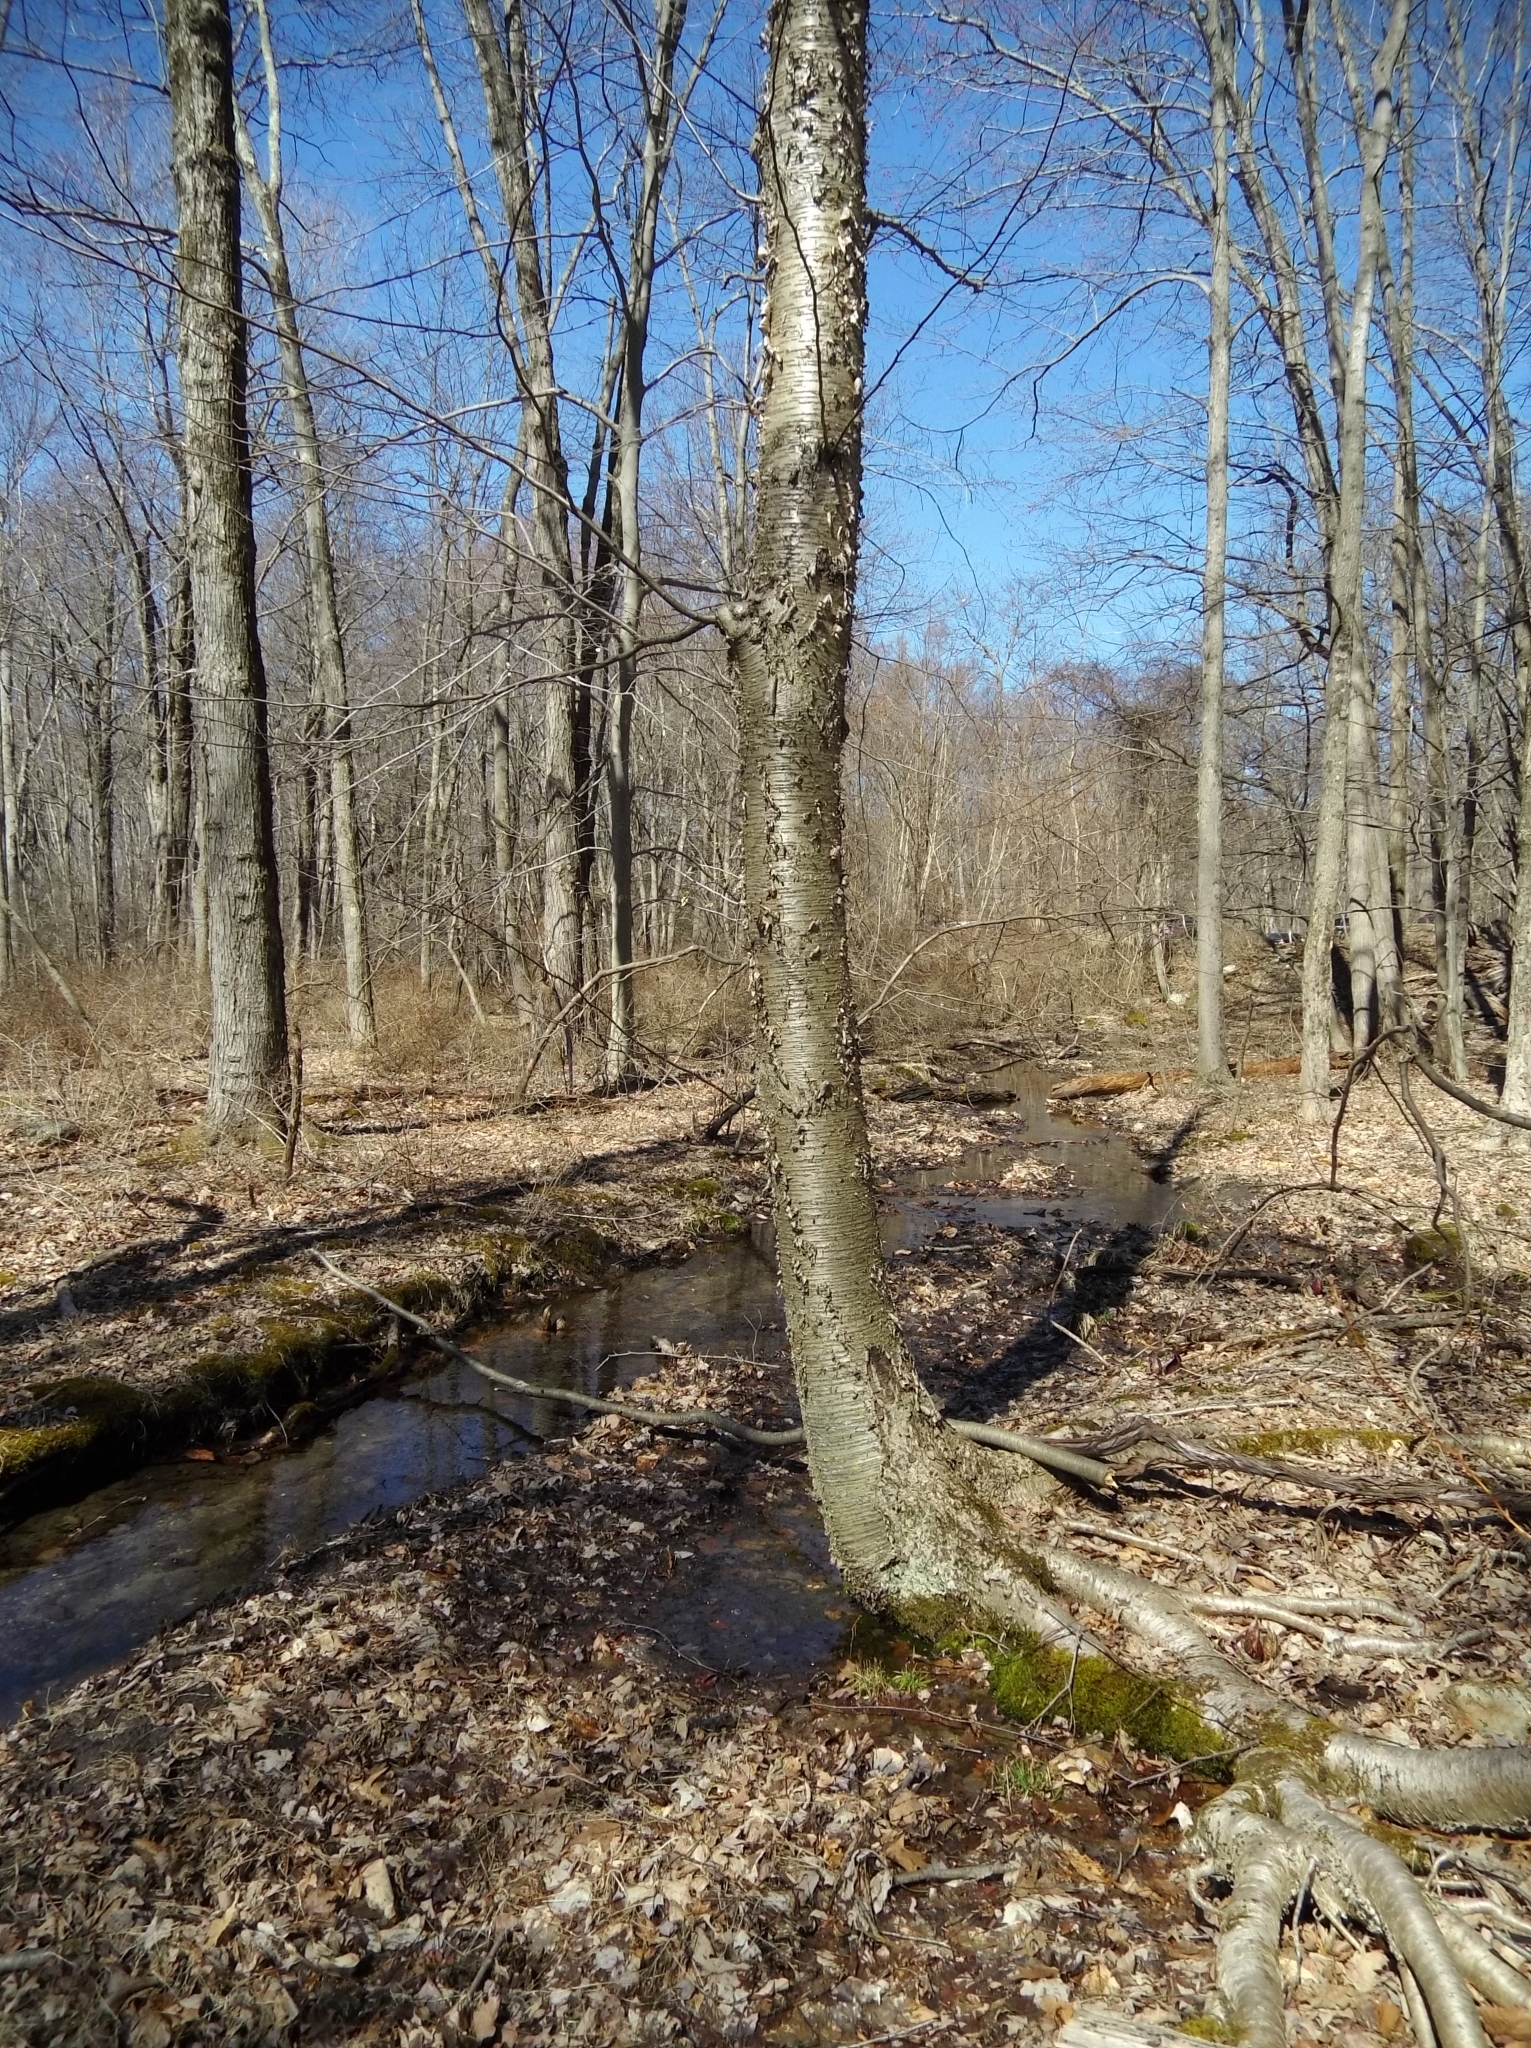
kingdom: Plantae
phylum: Tracheophyta
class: Magnoliopsida
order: Fagales
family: Betulaceae
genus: Betula
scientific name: Betula alleghaniensis
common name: Yellow birch
